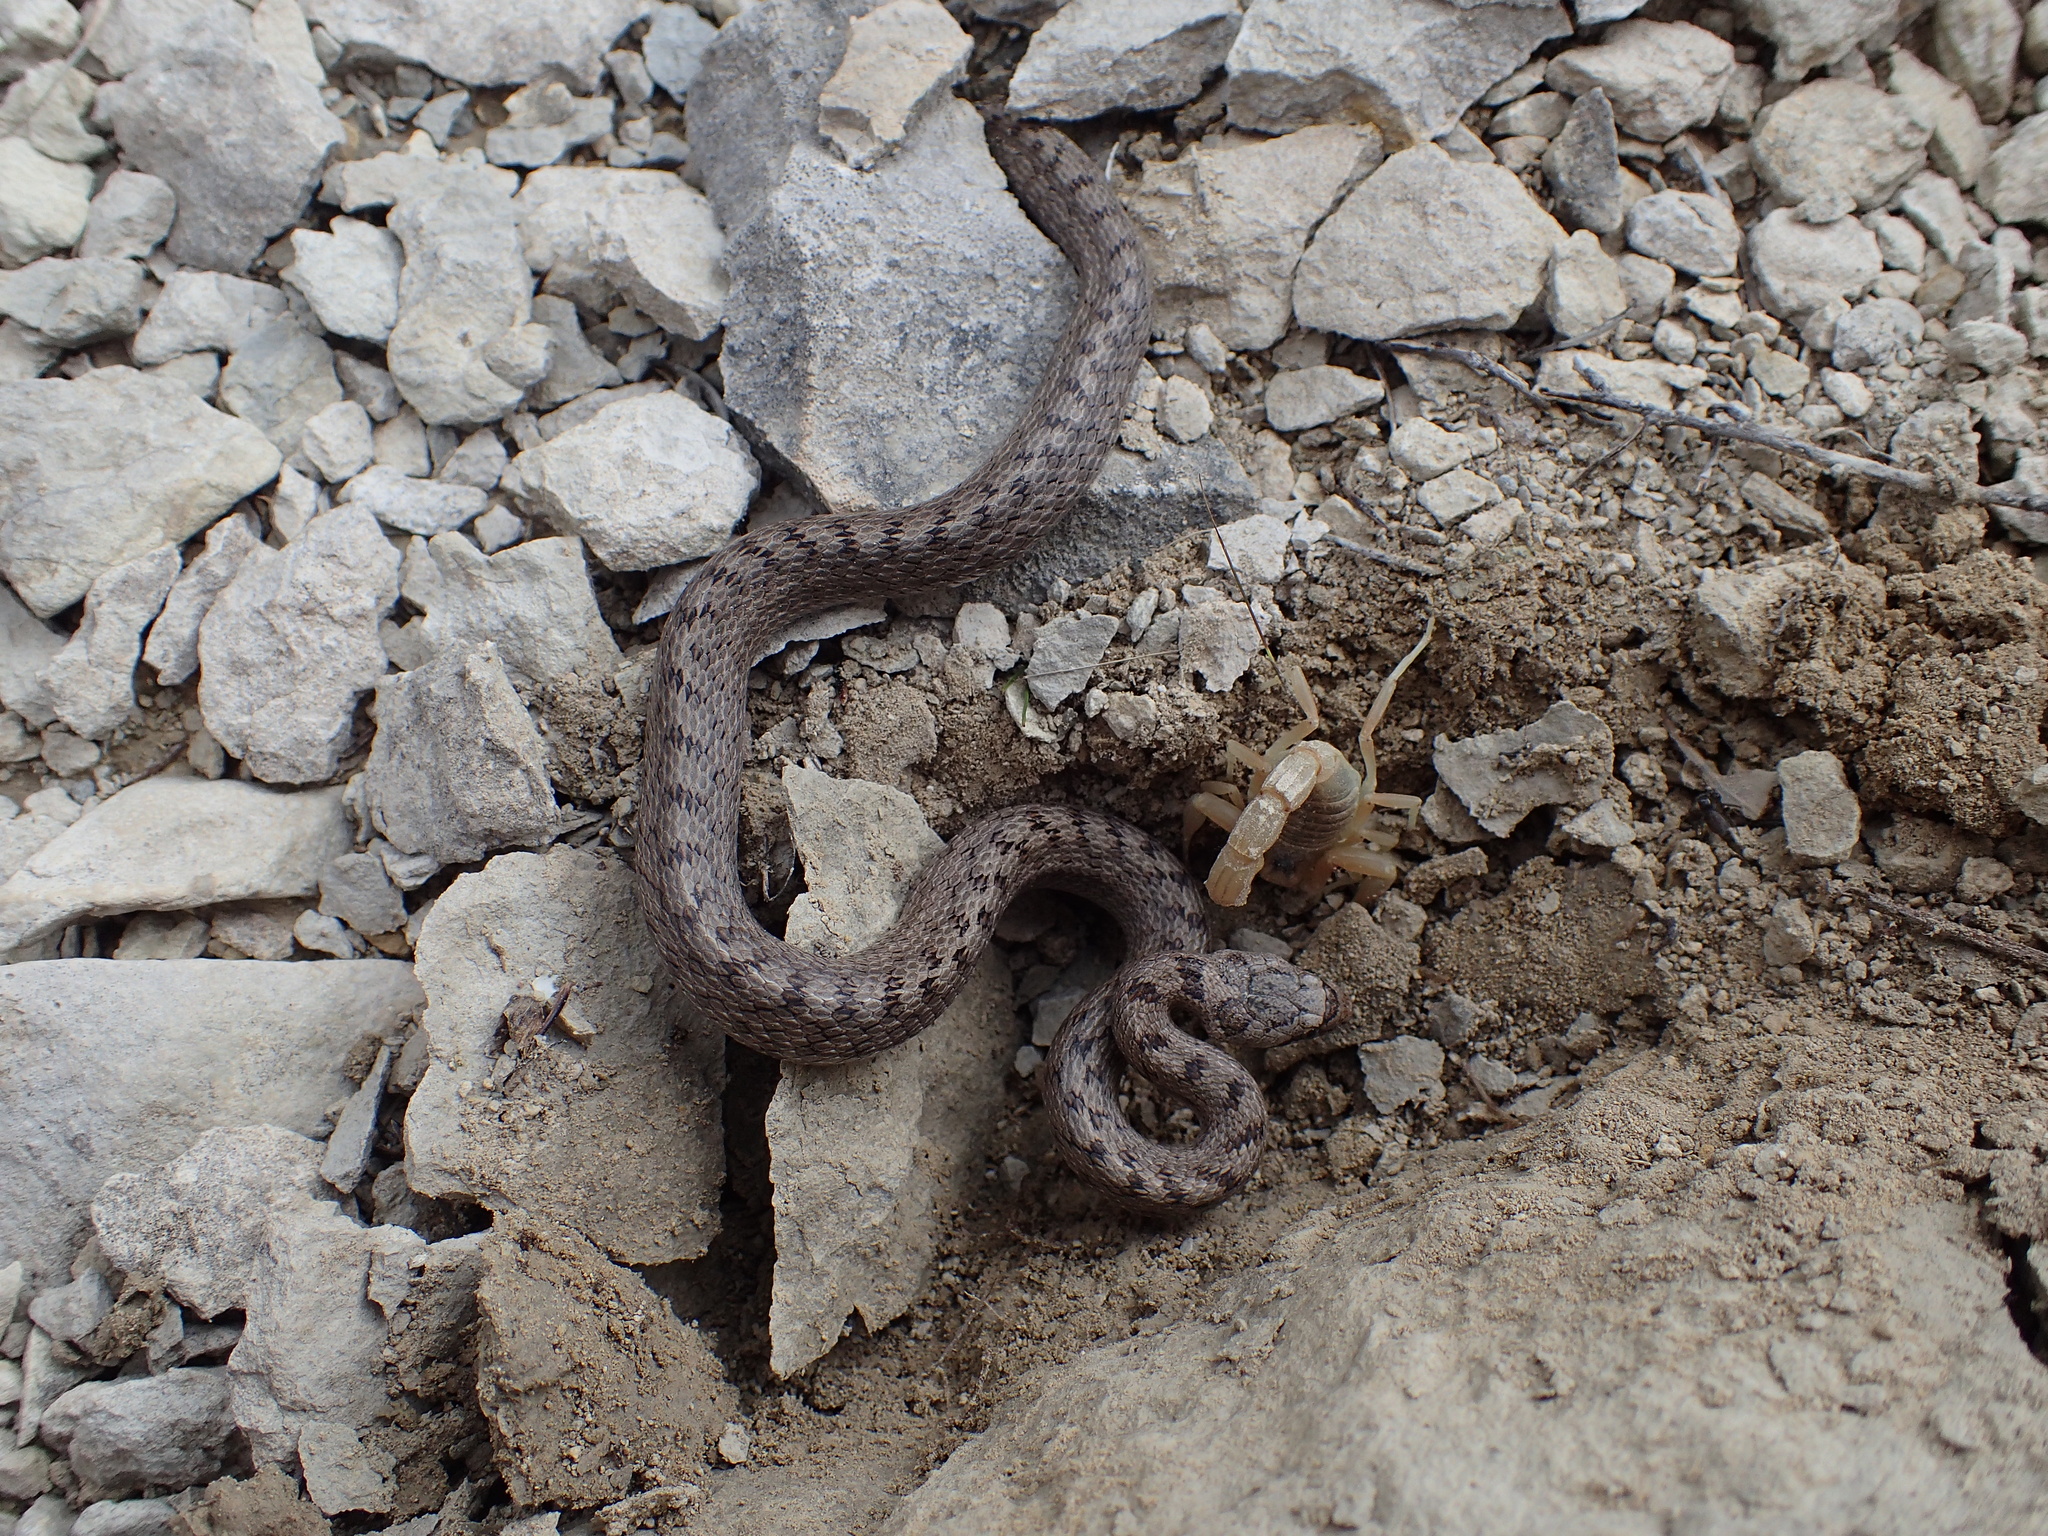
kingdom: Animalia
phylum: Chordata
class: Squamata
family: Colubridae
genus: Coronella
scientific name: Coronella girondica
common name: Southern smooth snake
